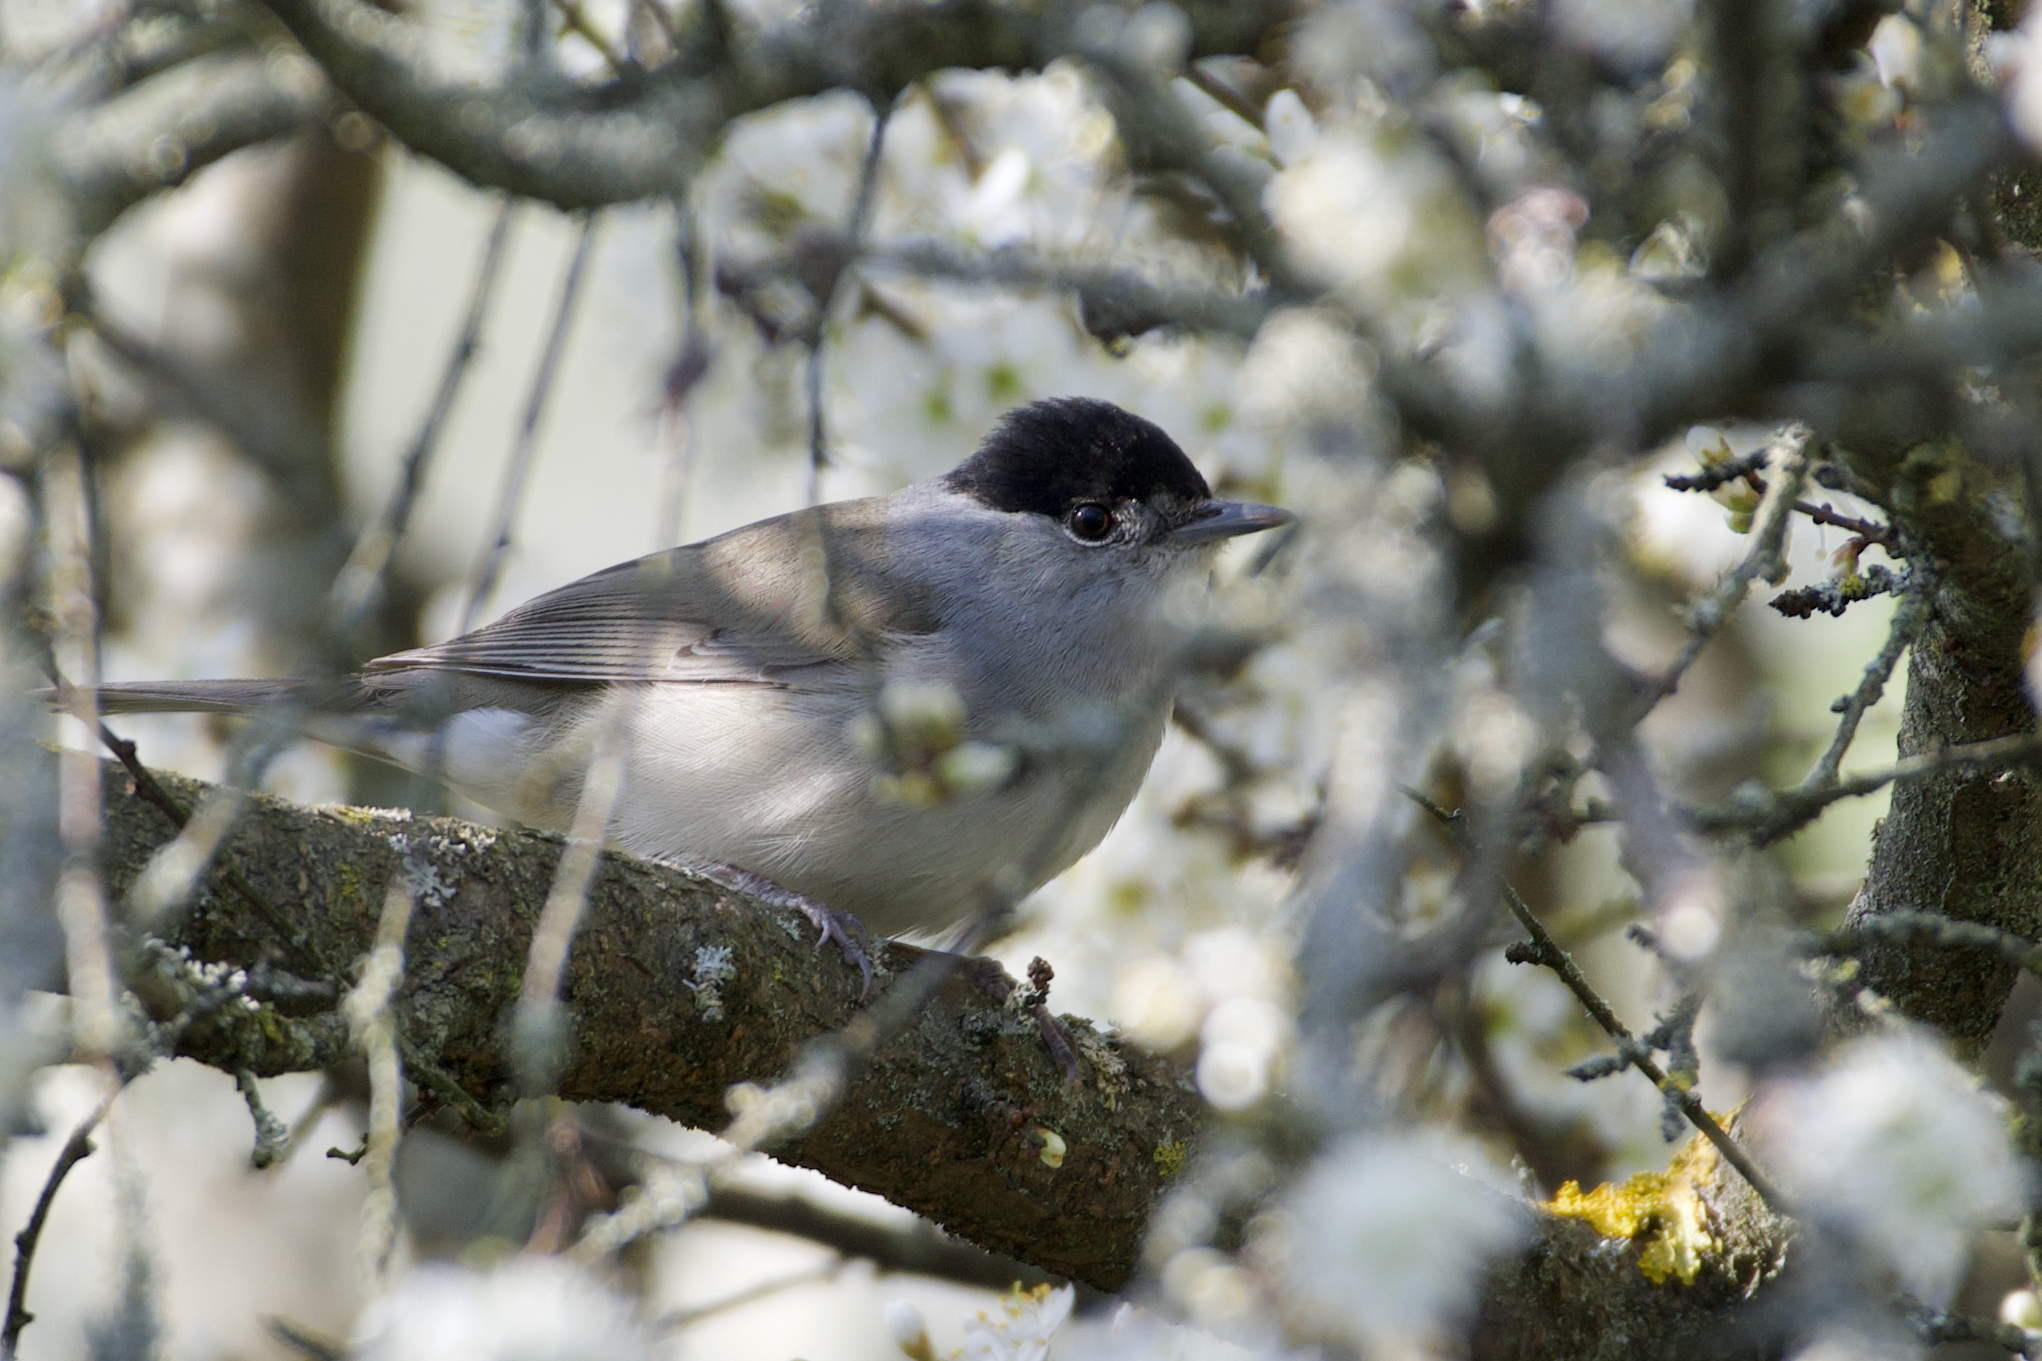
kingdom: Animalia
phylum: Chordata
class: Aves
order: Passeriformes
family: Sylviidae
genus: Sylvia
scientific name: Sylvia atricapilla
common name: Eurasian blackcap
